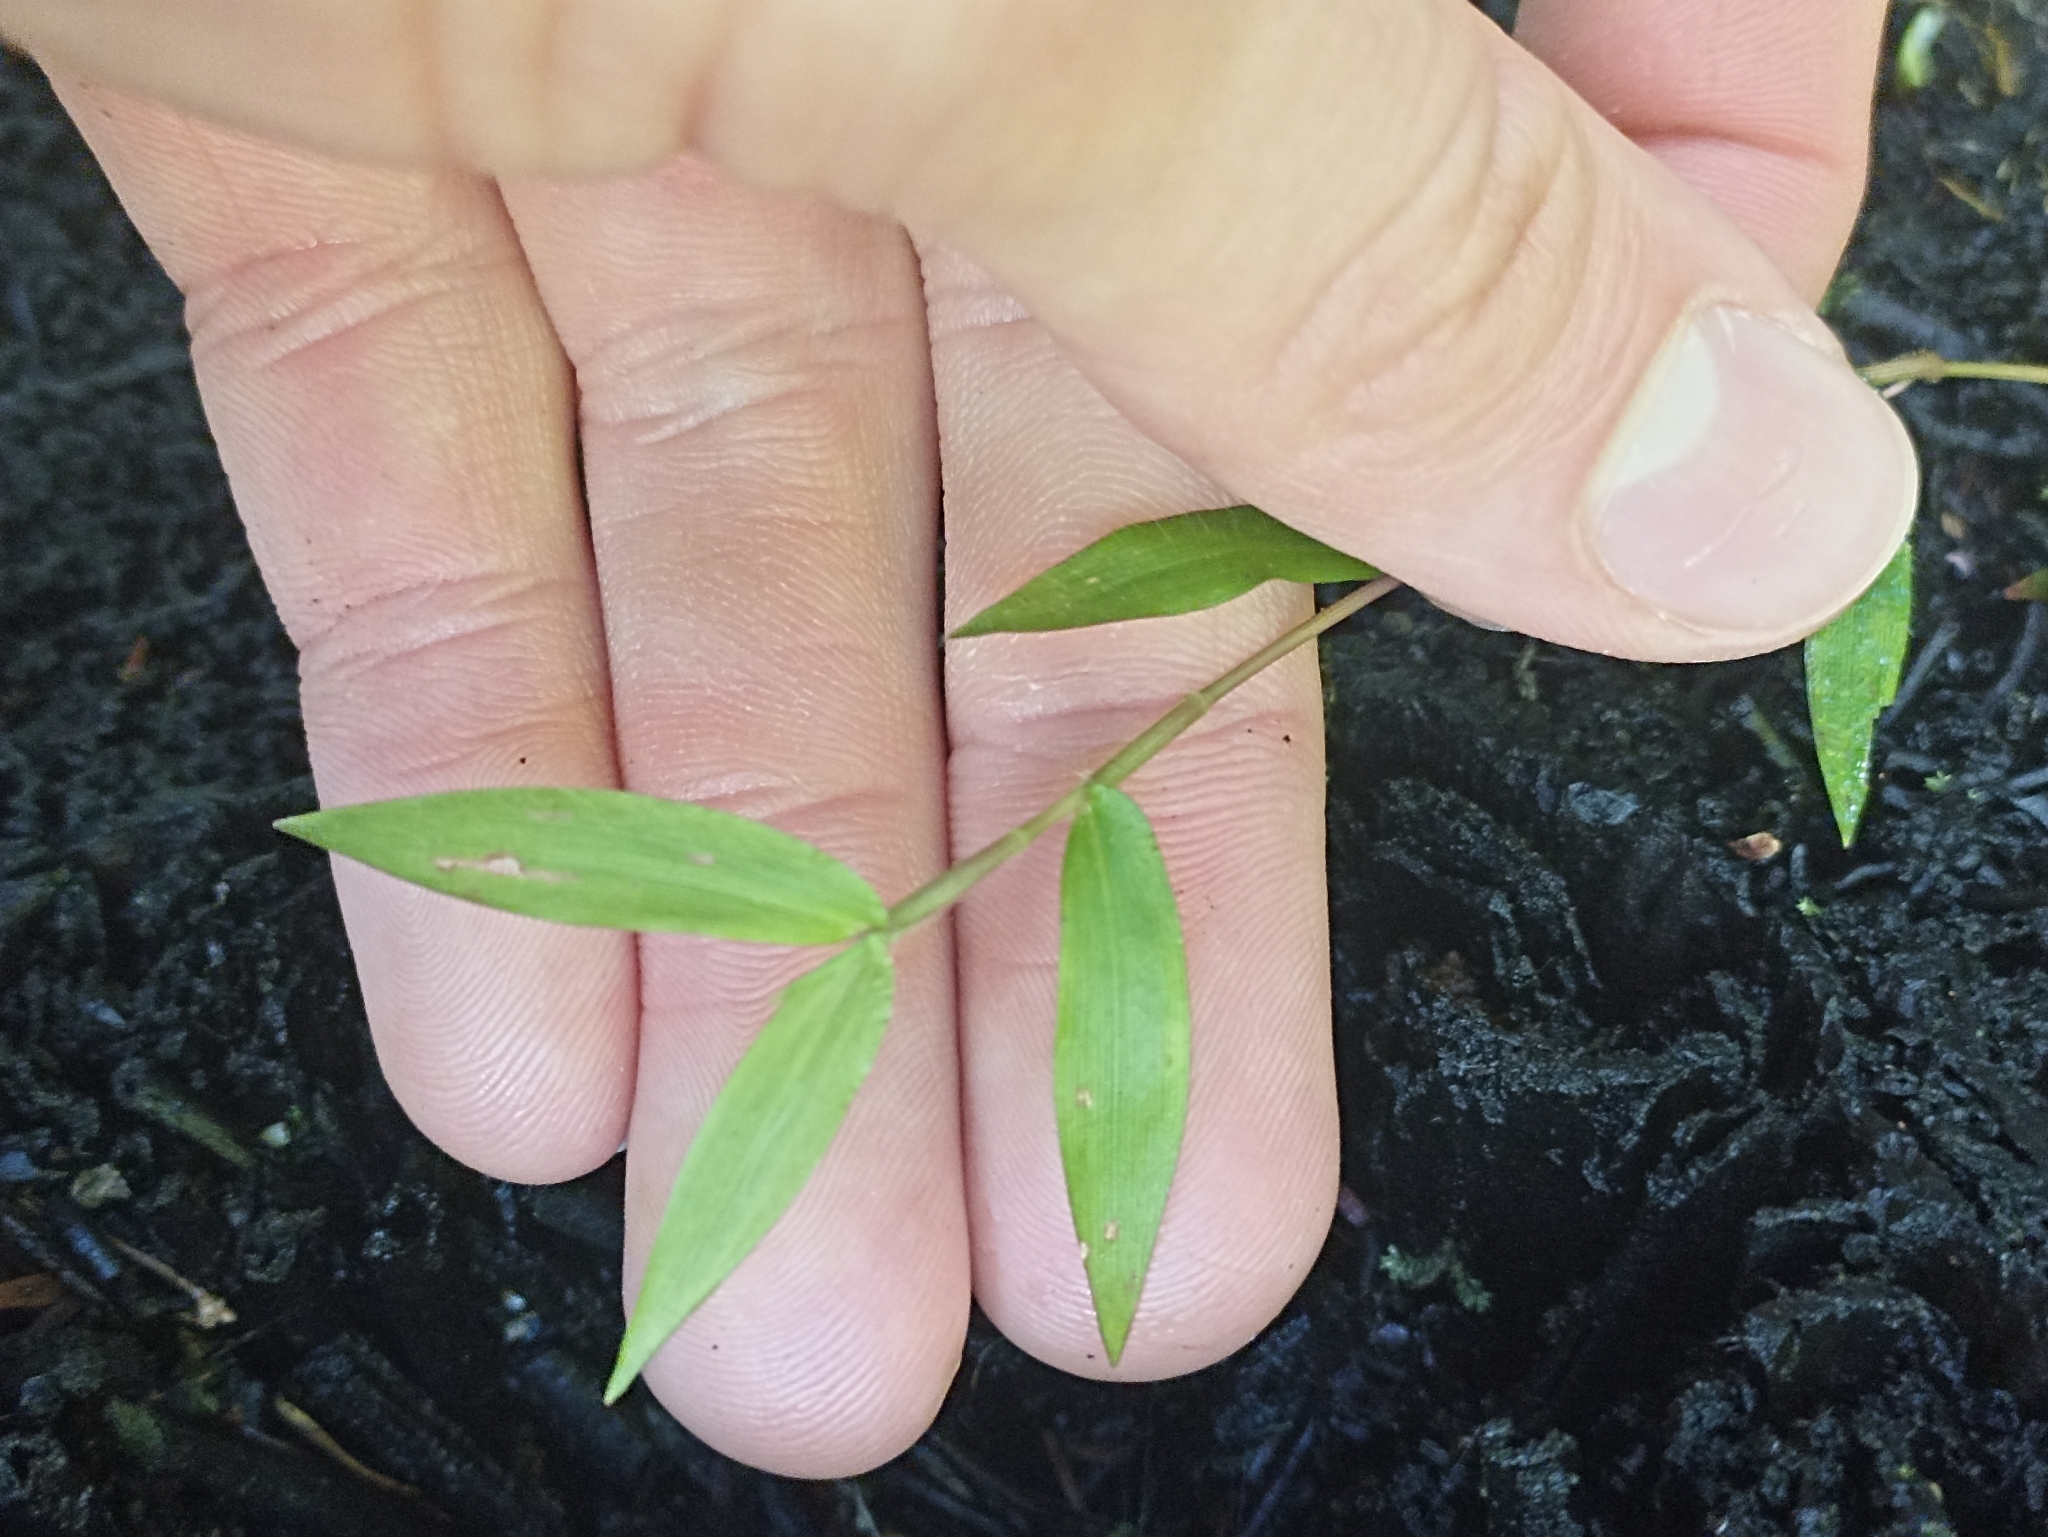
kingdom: Plantae
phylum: Tracheophyta
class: Liliopsida
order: Poales
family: Poaceae
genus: Oplismenus
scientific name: Oplismenus hirtellus
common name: Basketgrass
